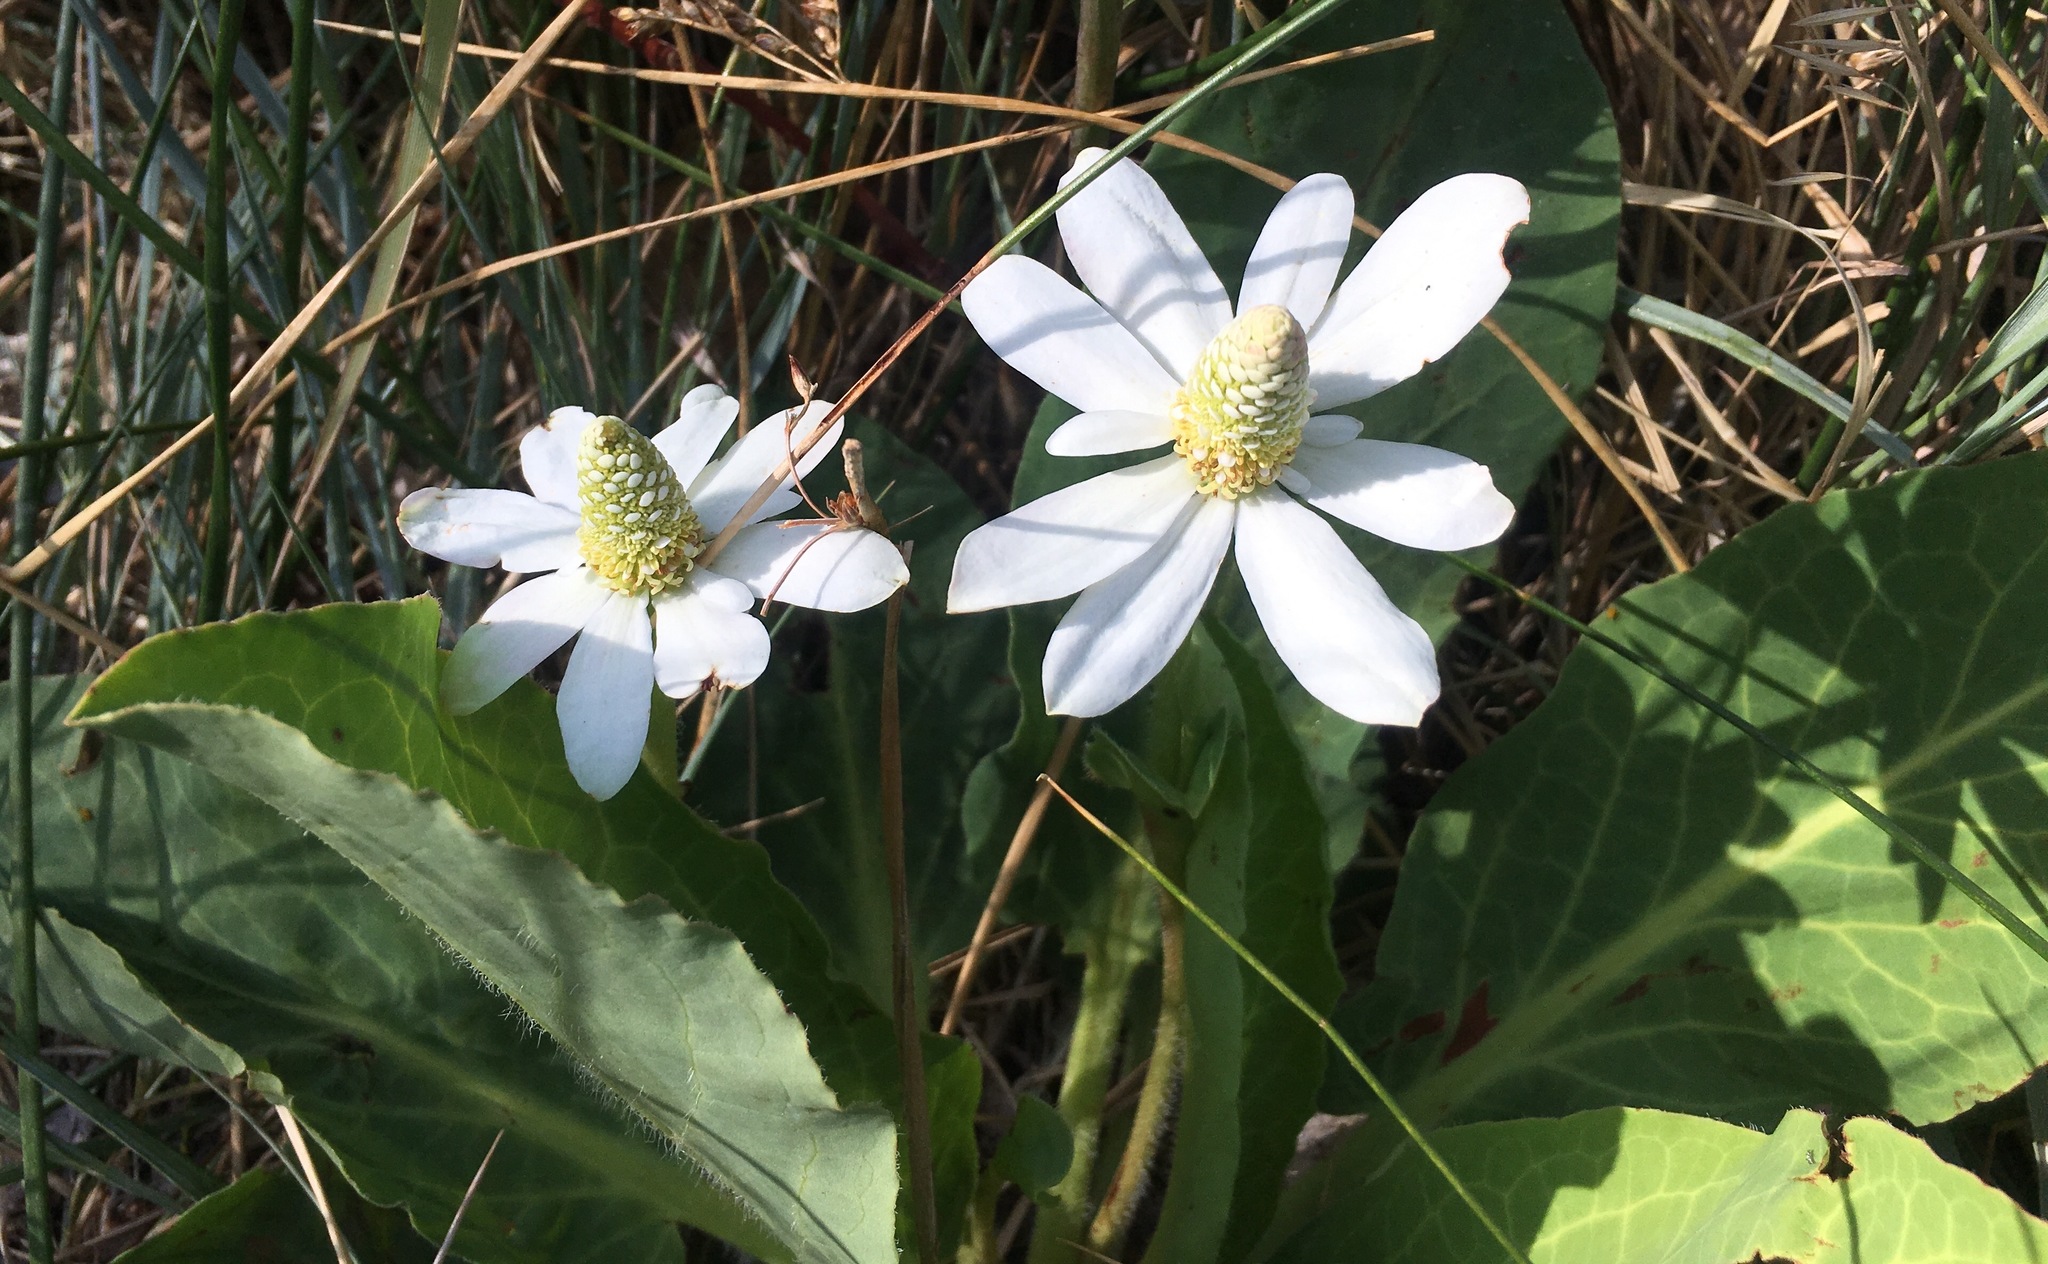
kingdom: Plantae
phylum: Tracheophyta
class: Magnoliopsida
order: Piperales
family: Saururaceae
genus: Anemopsis
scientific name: Anemopsis californica
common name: Apache-beads
